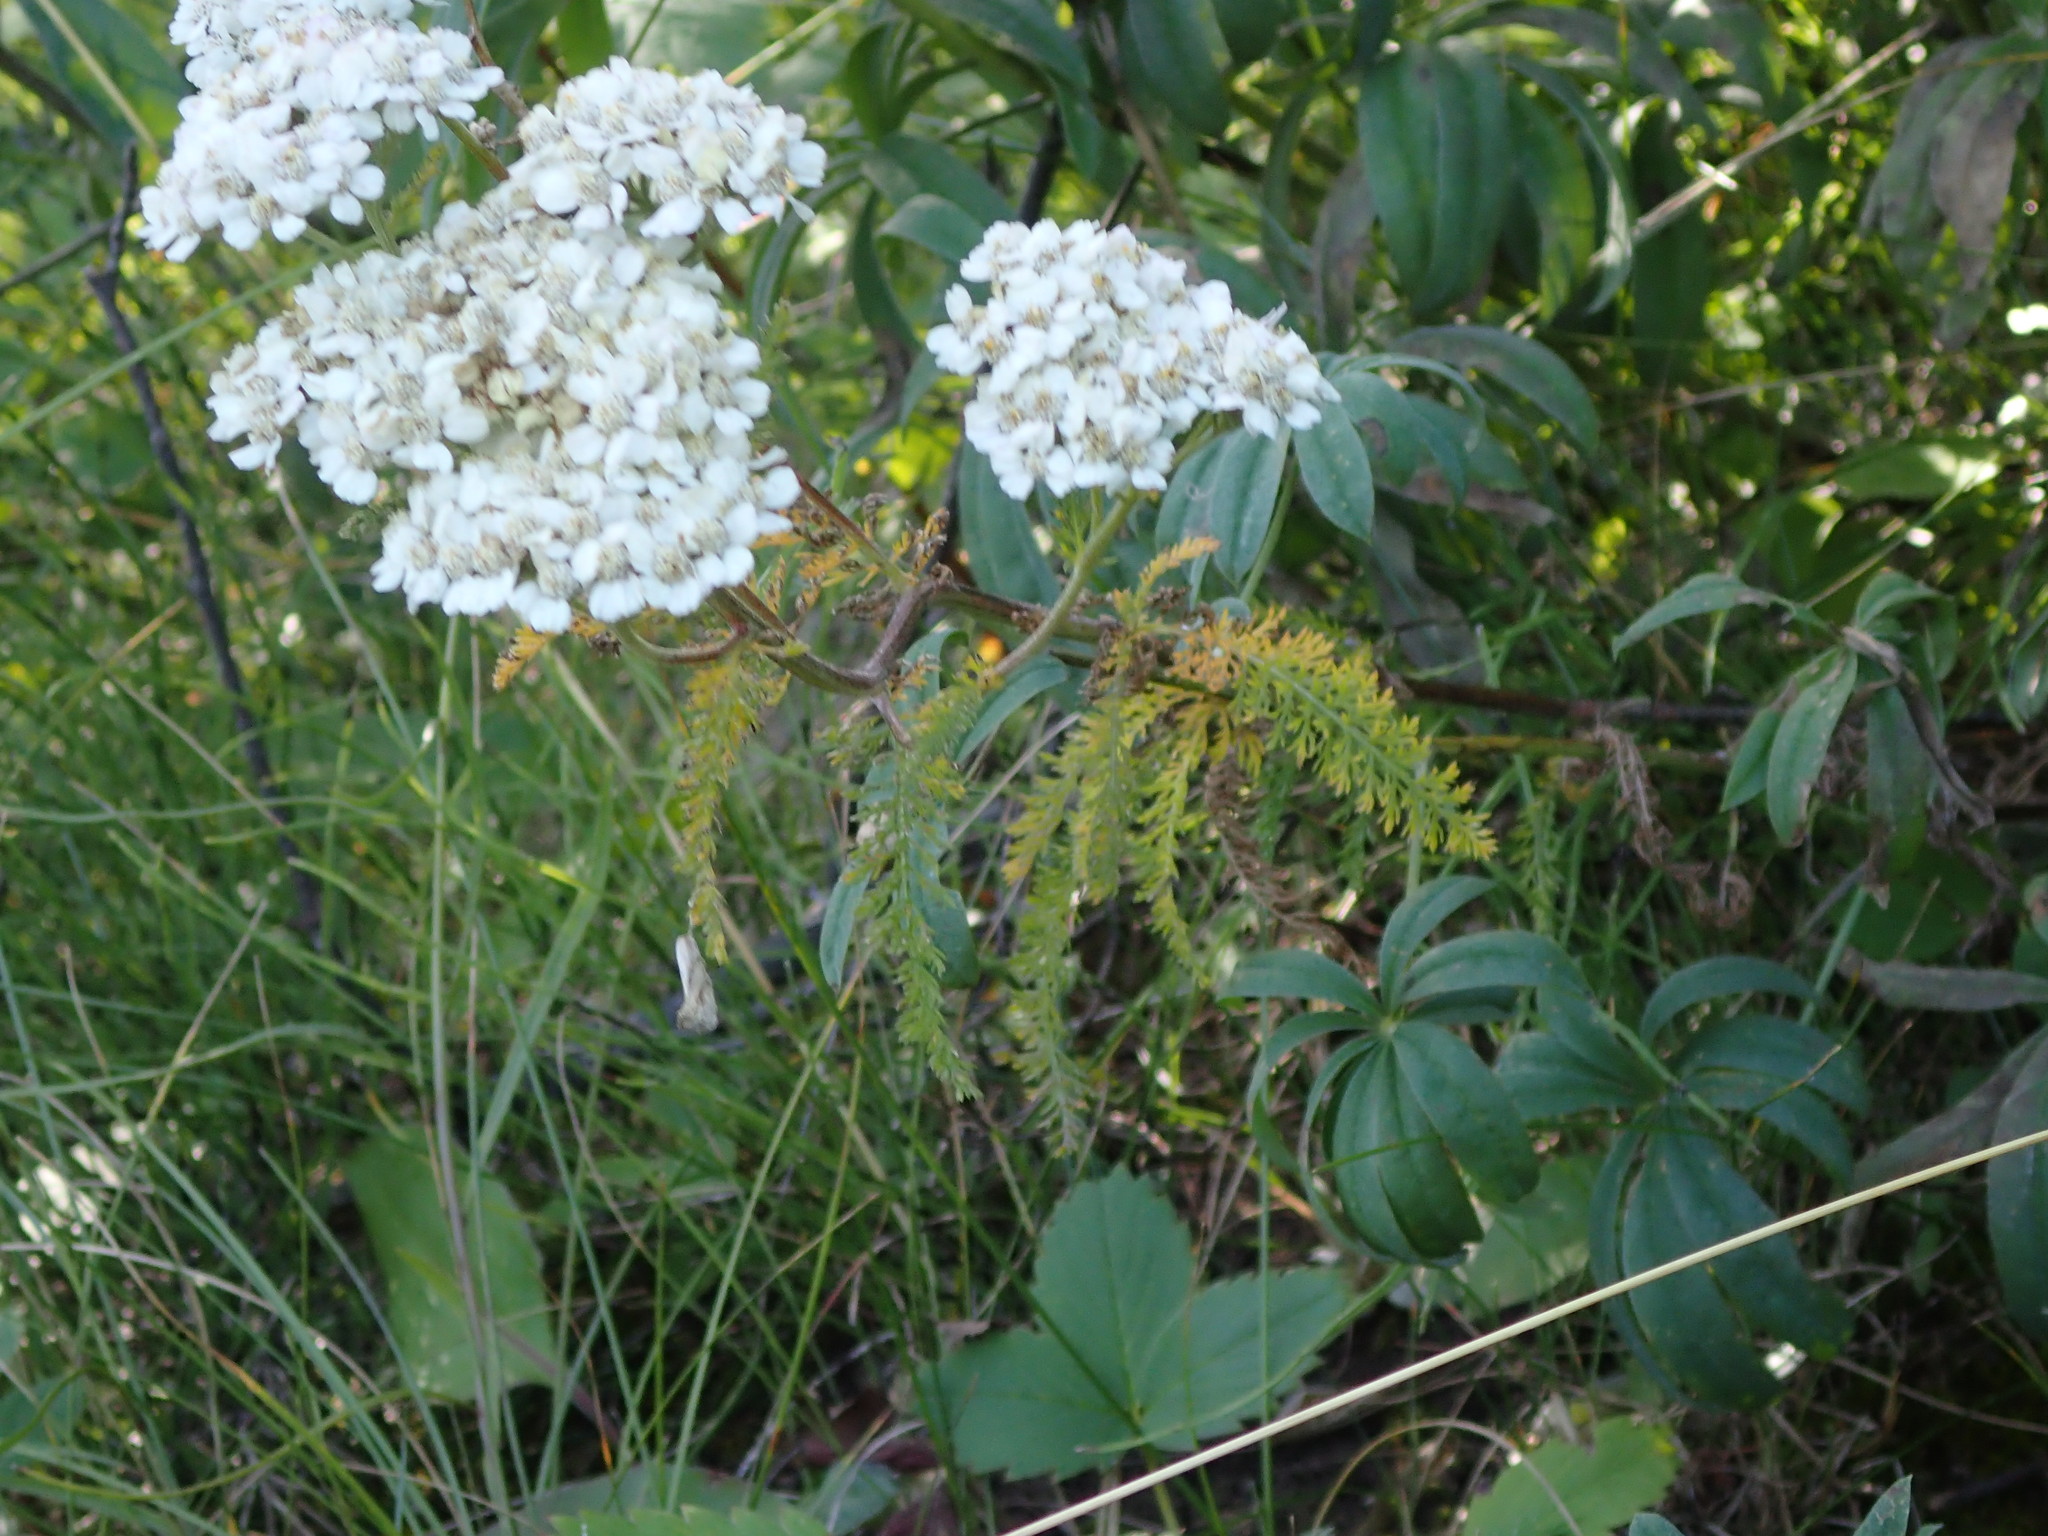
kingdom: Plantae
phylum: Tracheophyta
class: Magnoliopsida
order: Asterales
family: Asteraceae
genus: Achillea
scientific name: Achillea millefolium
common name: Yarrow
